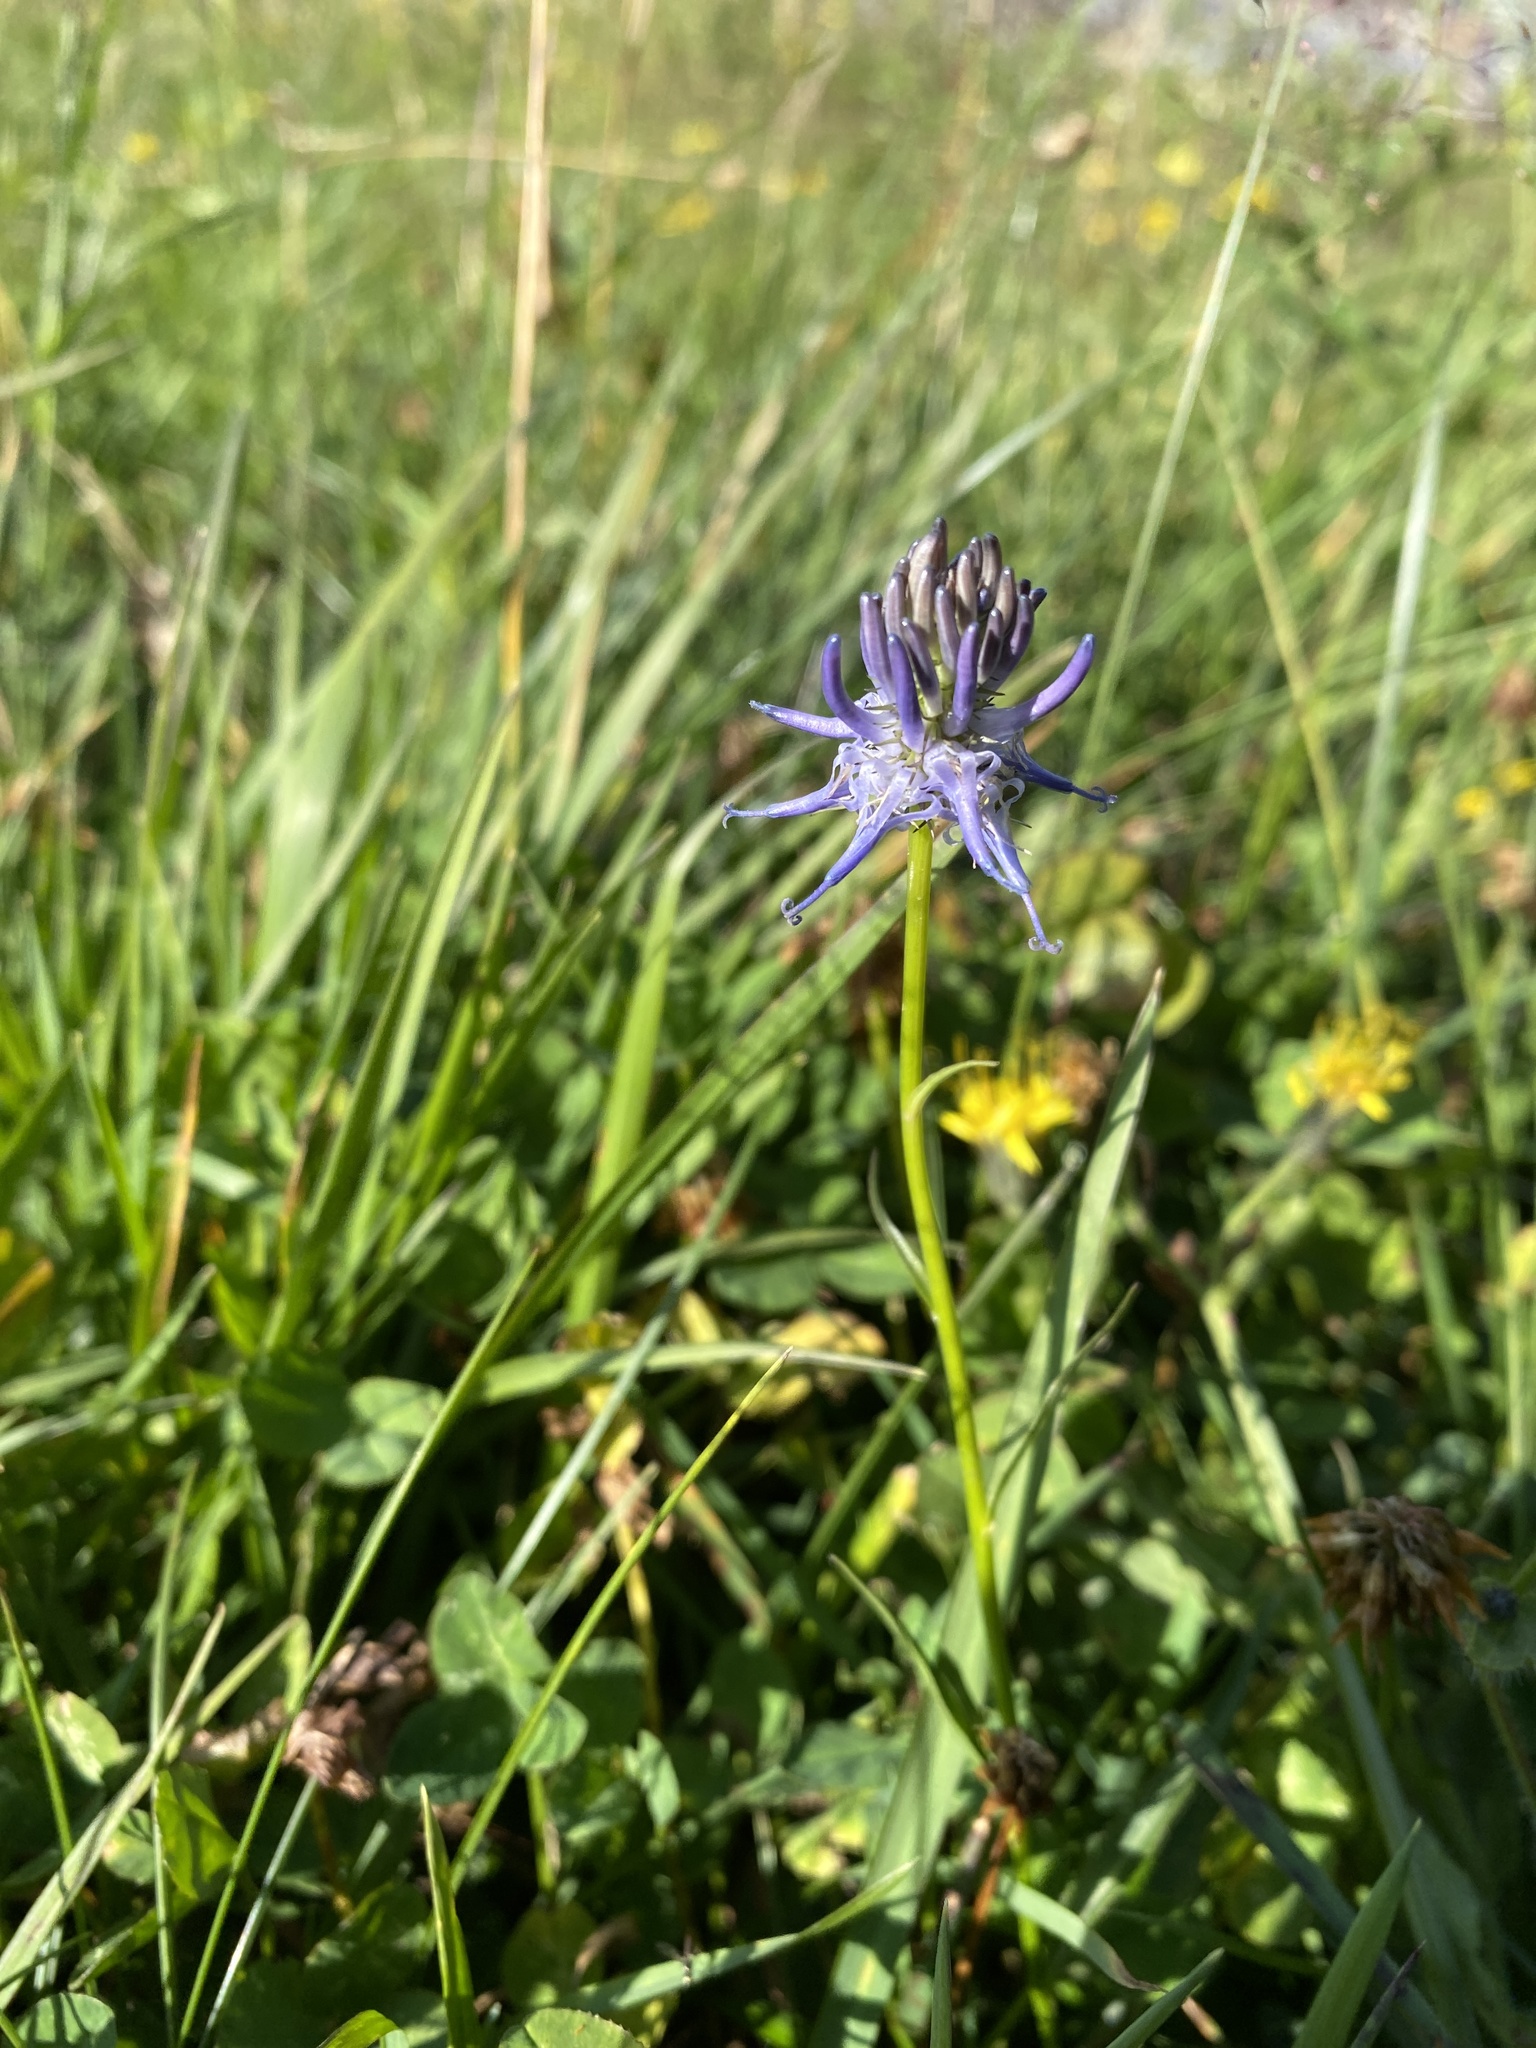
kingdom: Plantae
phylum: Tracheophyta
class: Magnoliopsida
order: Asterales
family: Campanulaceae
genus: Phyteuma
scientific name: Phyteuma betonicifolium
